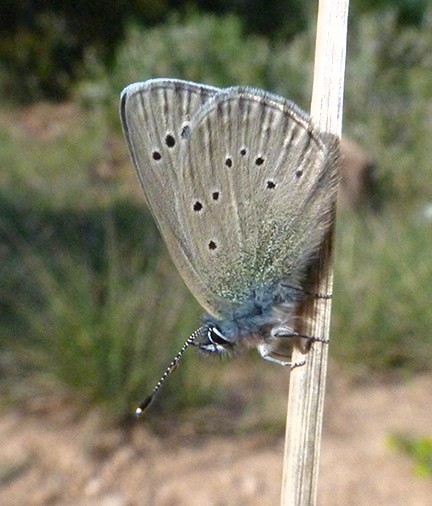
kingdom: Animalia
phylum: Arthropoda
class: Insecta
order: Lepidoptera
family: Lycaenidae
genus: Glaucopsyche
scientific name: Glaucopsyche melanops
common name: Black-eyed blue
